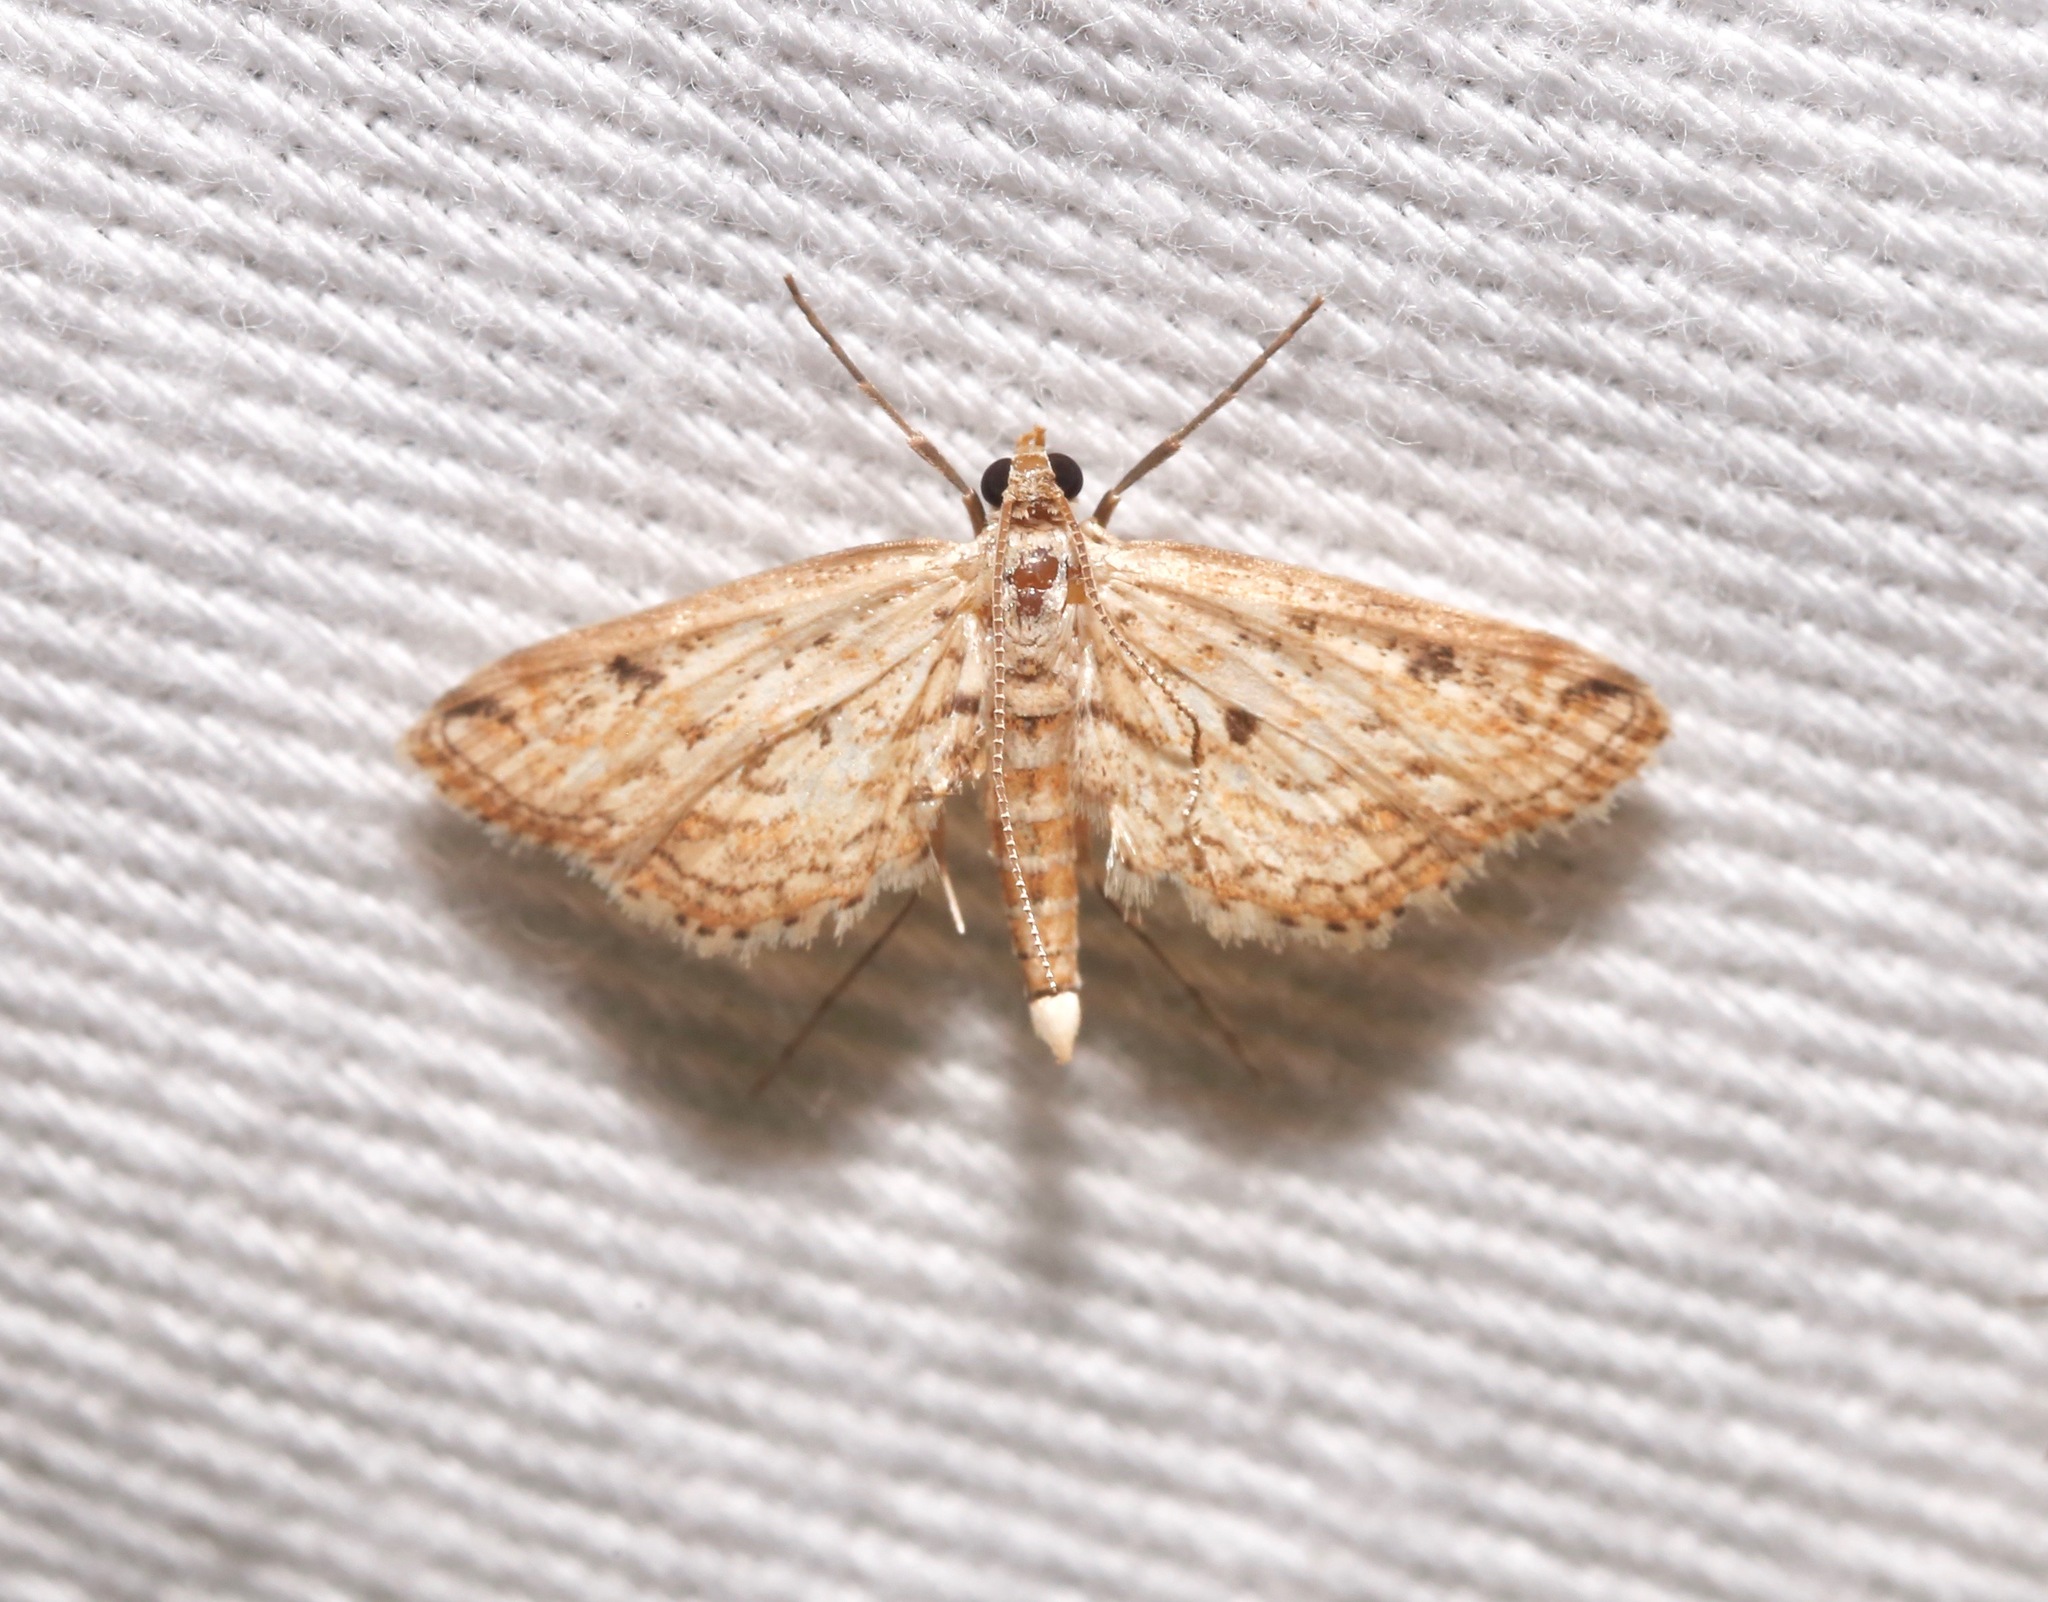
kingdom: Animalia
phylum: Arthropoda
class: Insecta
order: Lepidoptera
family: Crambidae
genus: Parapoynx
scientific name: Parapoynx allionealis
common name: Bladderwort casemaker
